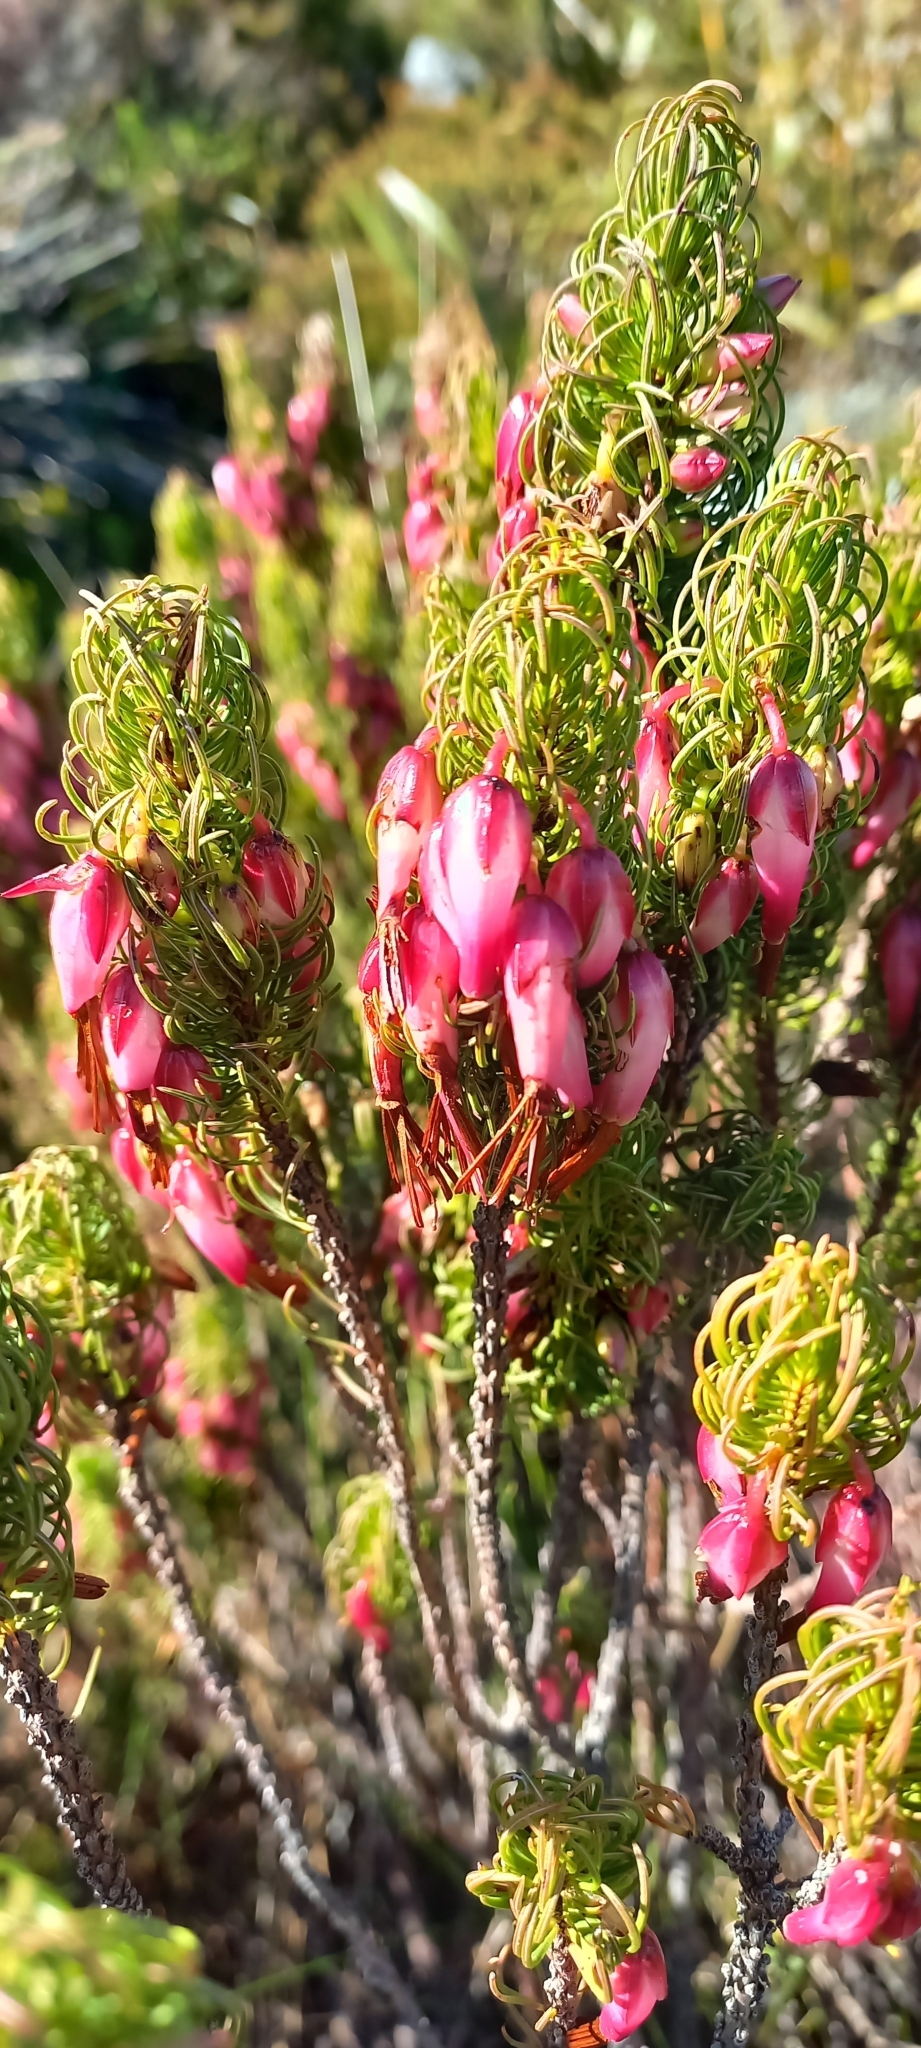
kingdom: Plantae
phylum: Tracheophyta
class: Magnoliopsida
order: Ericales
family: Ericaceae
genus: Erica
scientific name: Erica plukenetii
